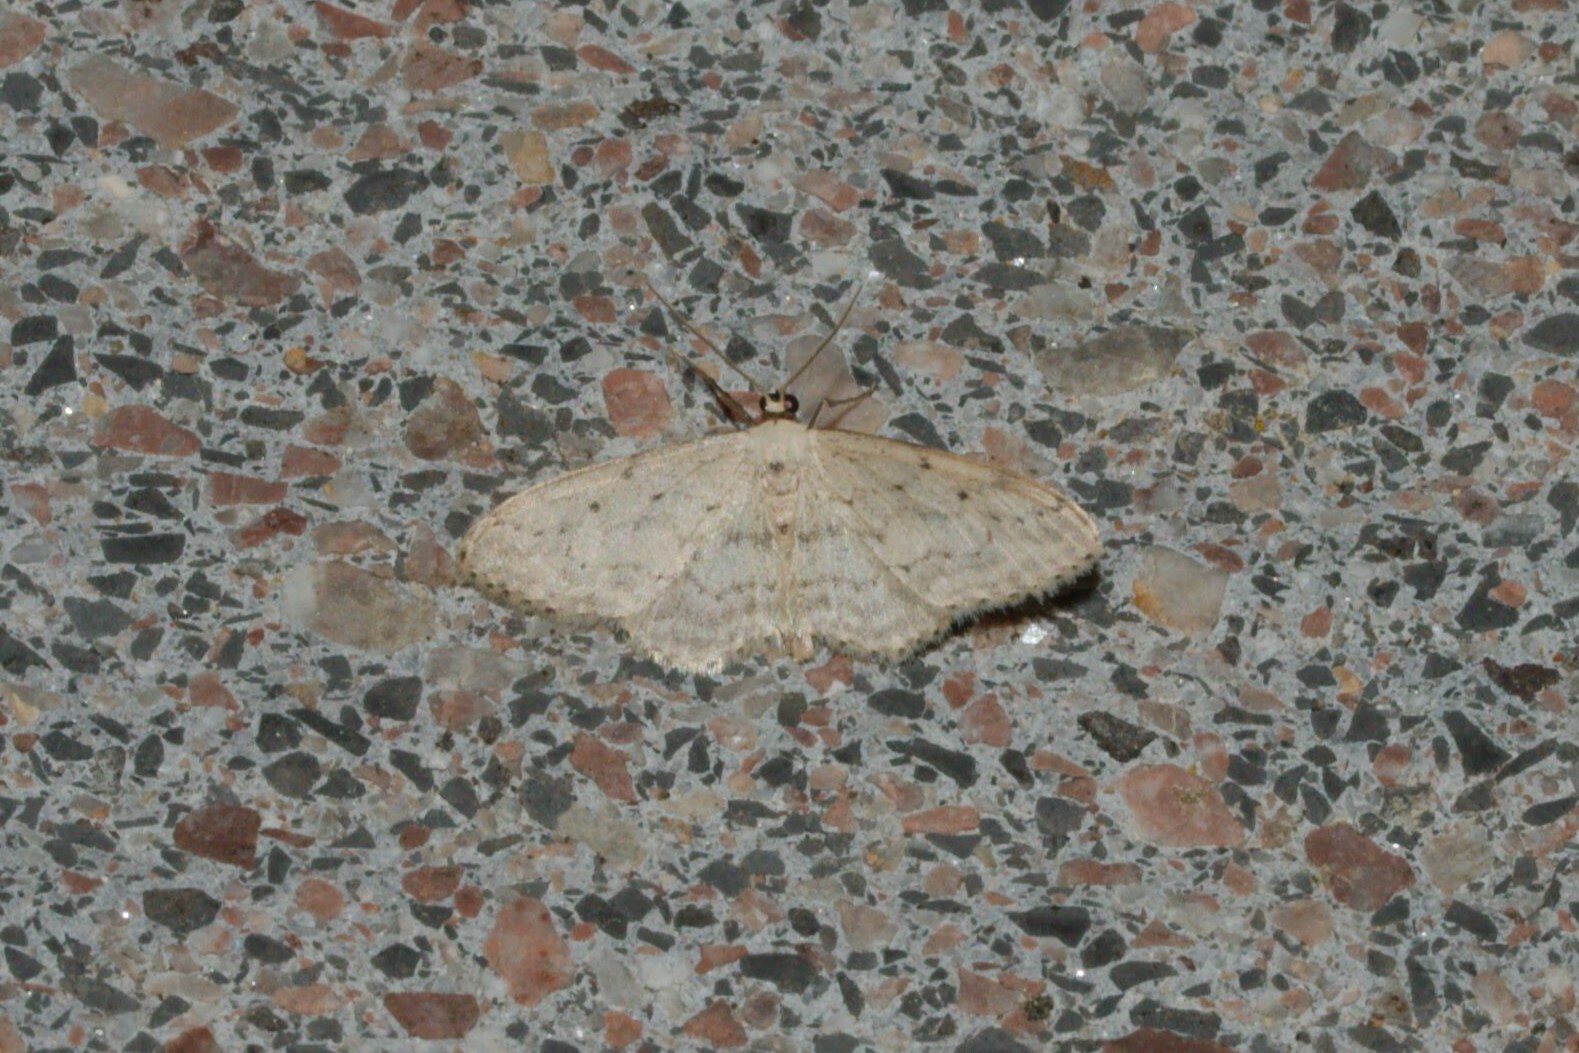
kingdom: Animalia
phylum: Arthropoda
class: Insecta
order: Lepidoptera
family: Geometridae
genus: Idaea
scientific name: Idaea seriata
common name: Small dusty wave
